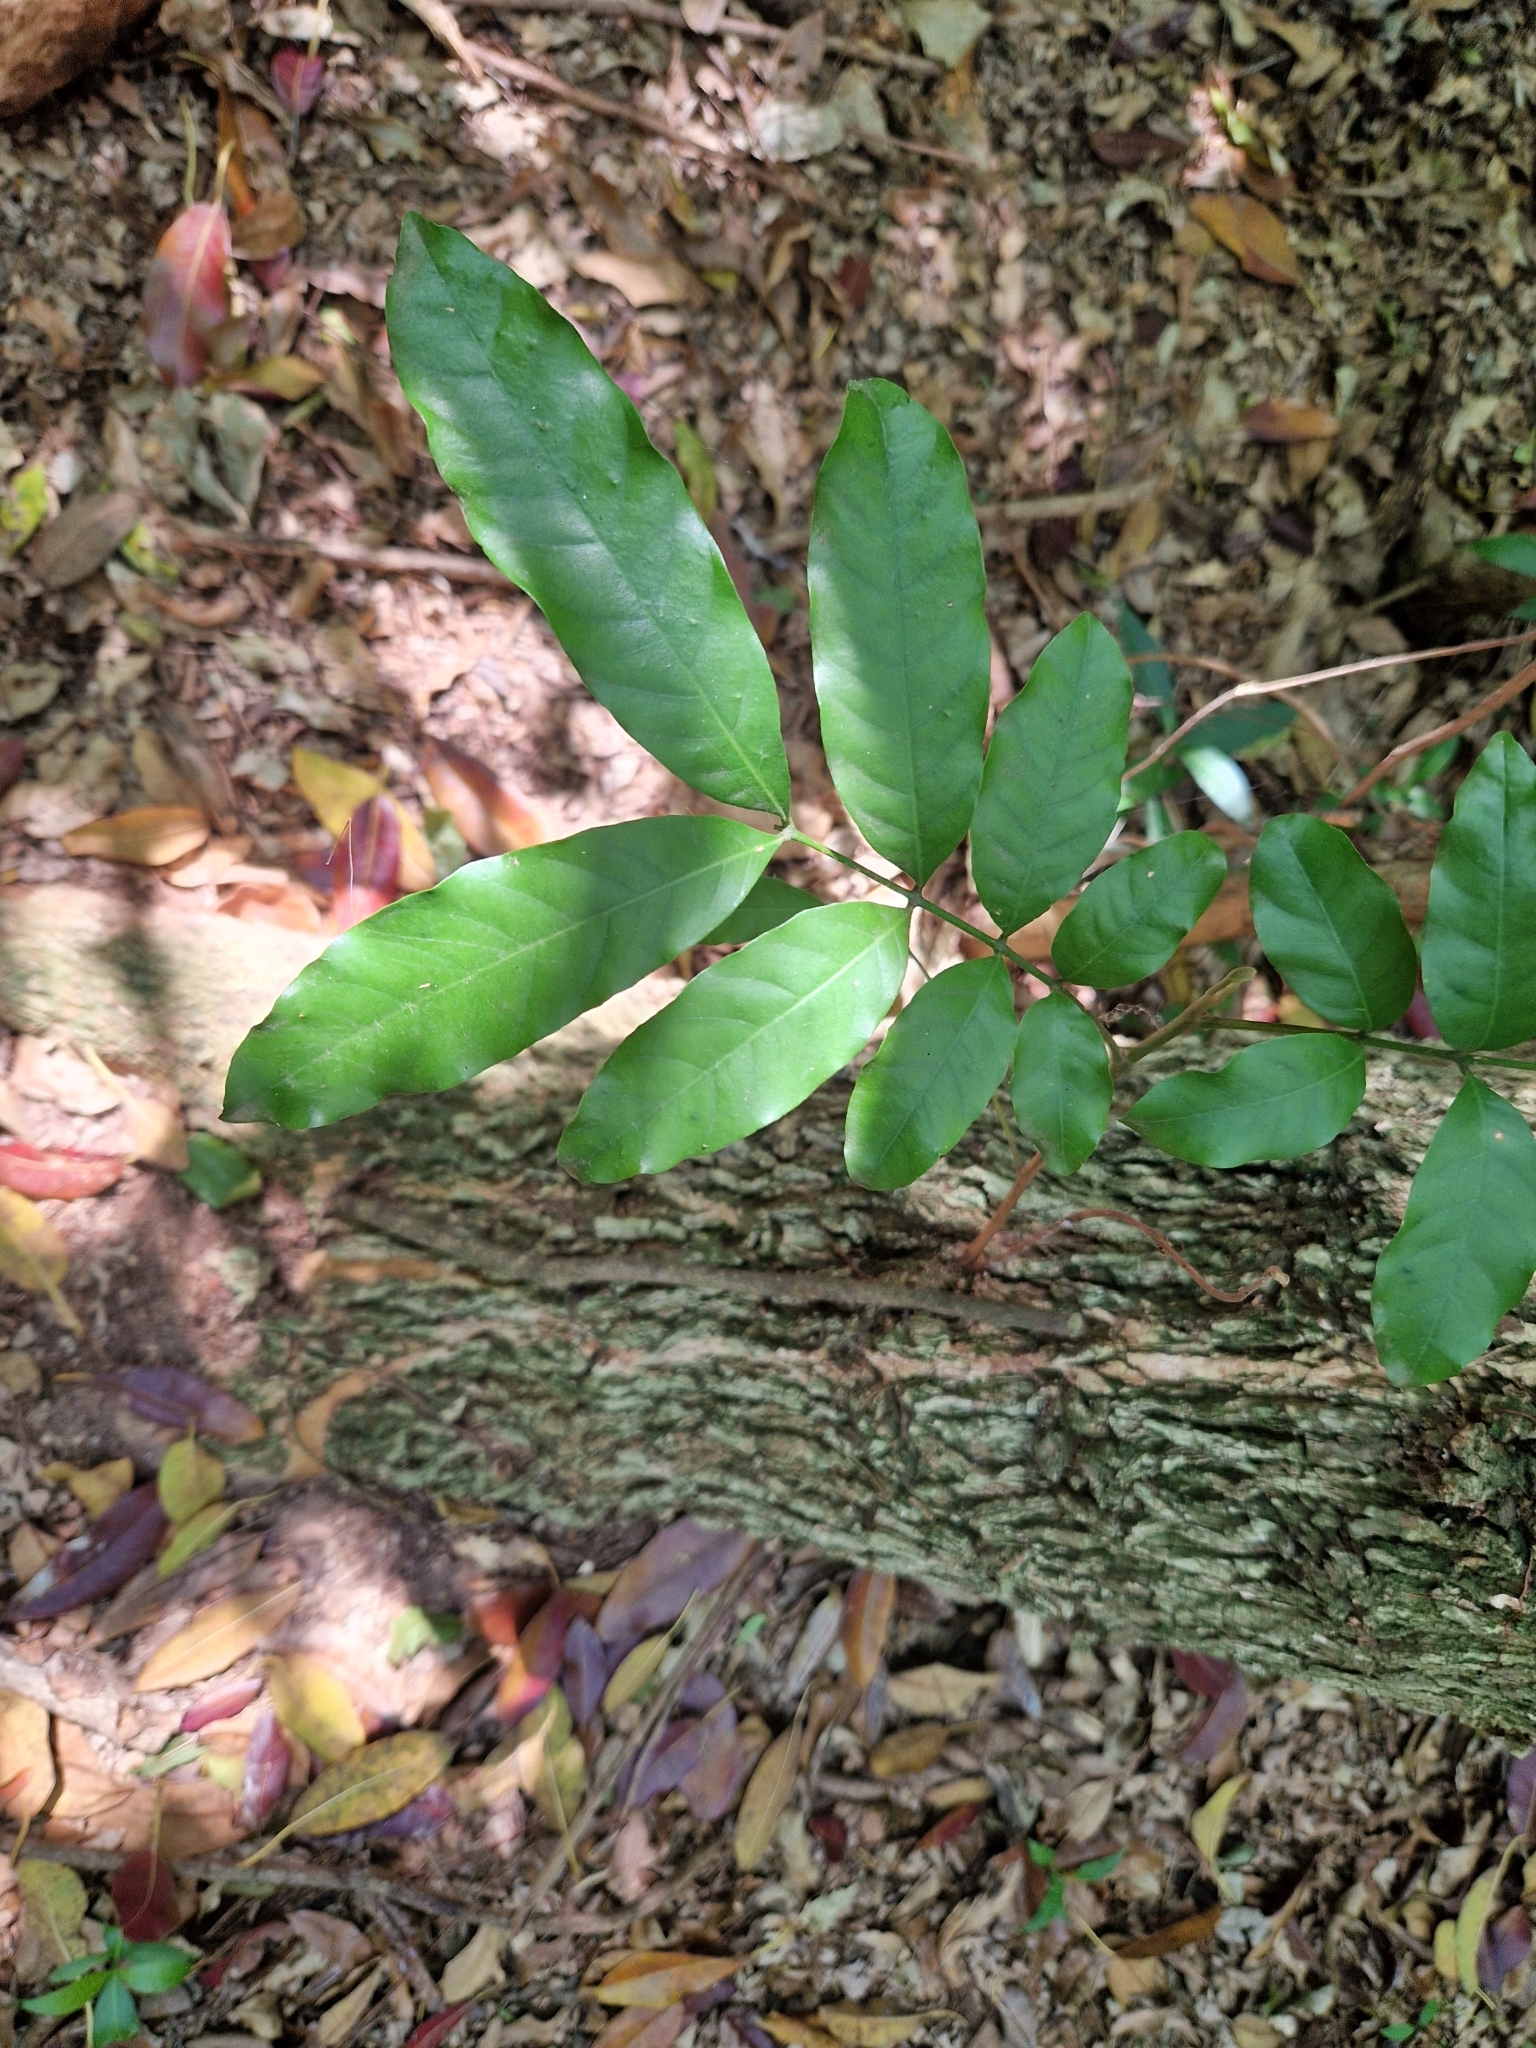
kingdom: Plantae
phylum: Tracheophyta
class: Magnoliopsida
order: Sapindales
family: Meliaceae
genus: Guarea
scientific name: Guarea macrophylla
